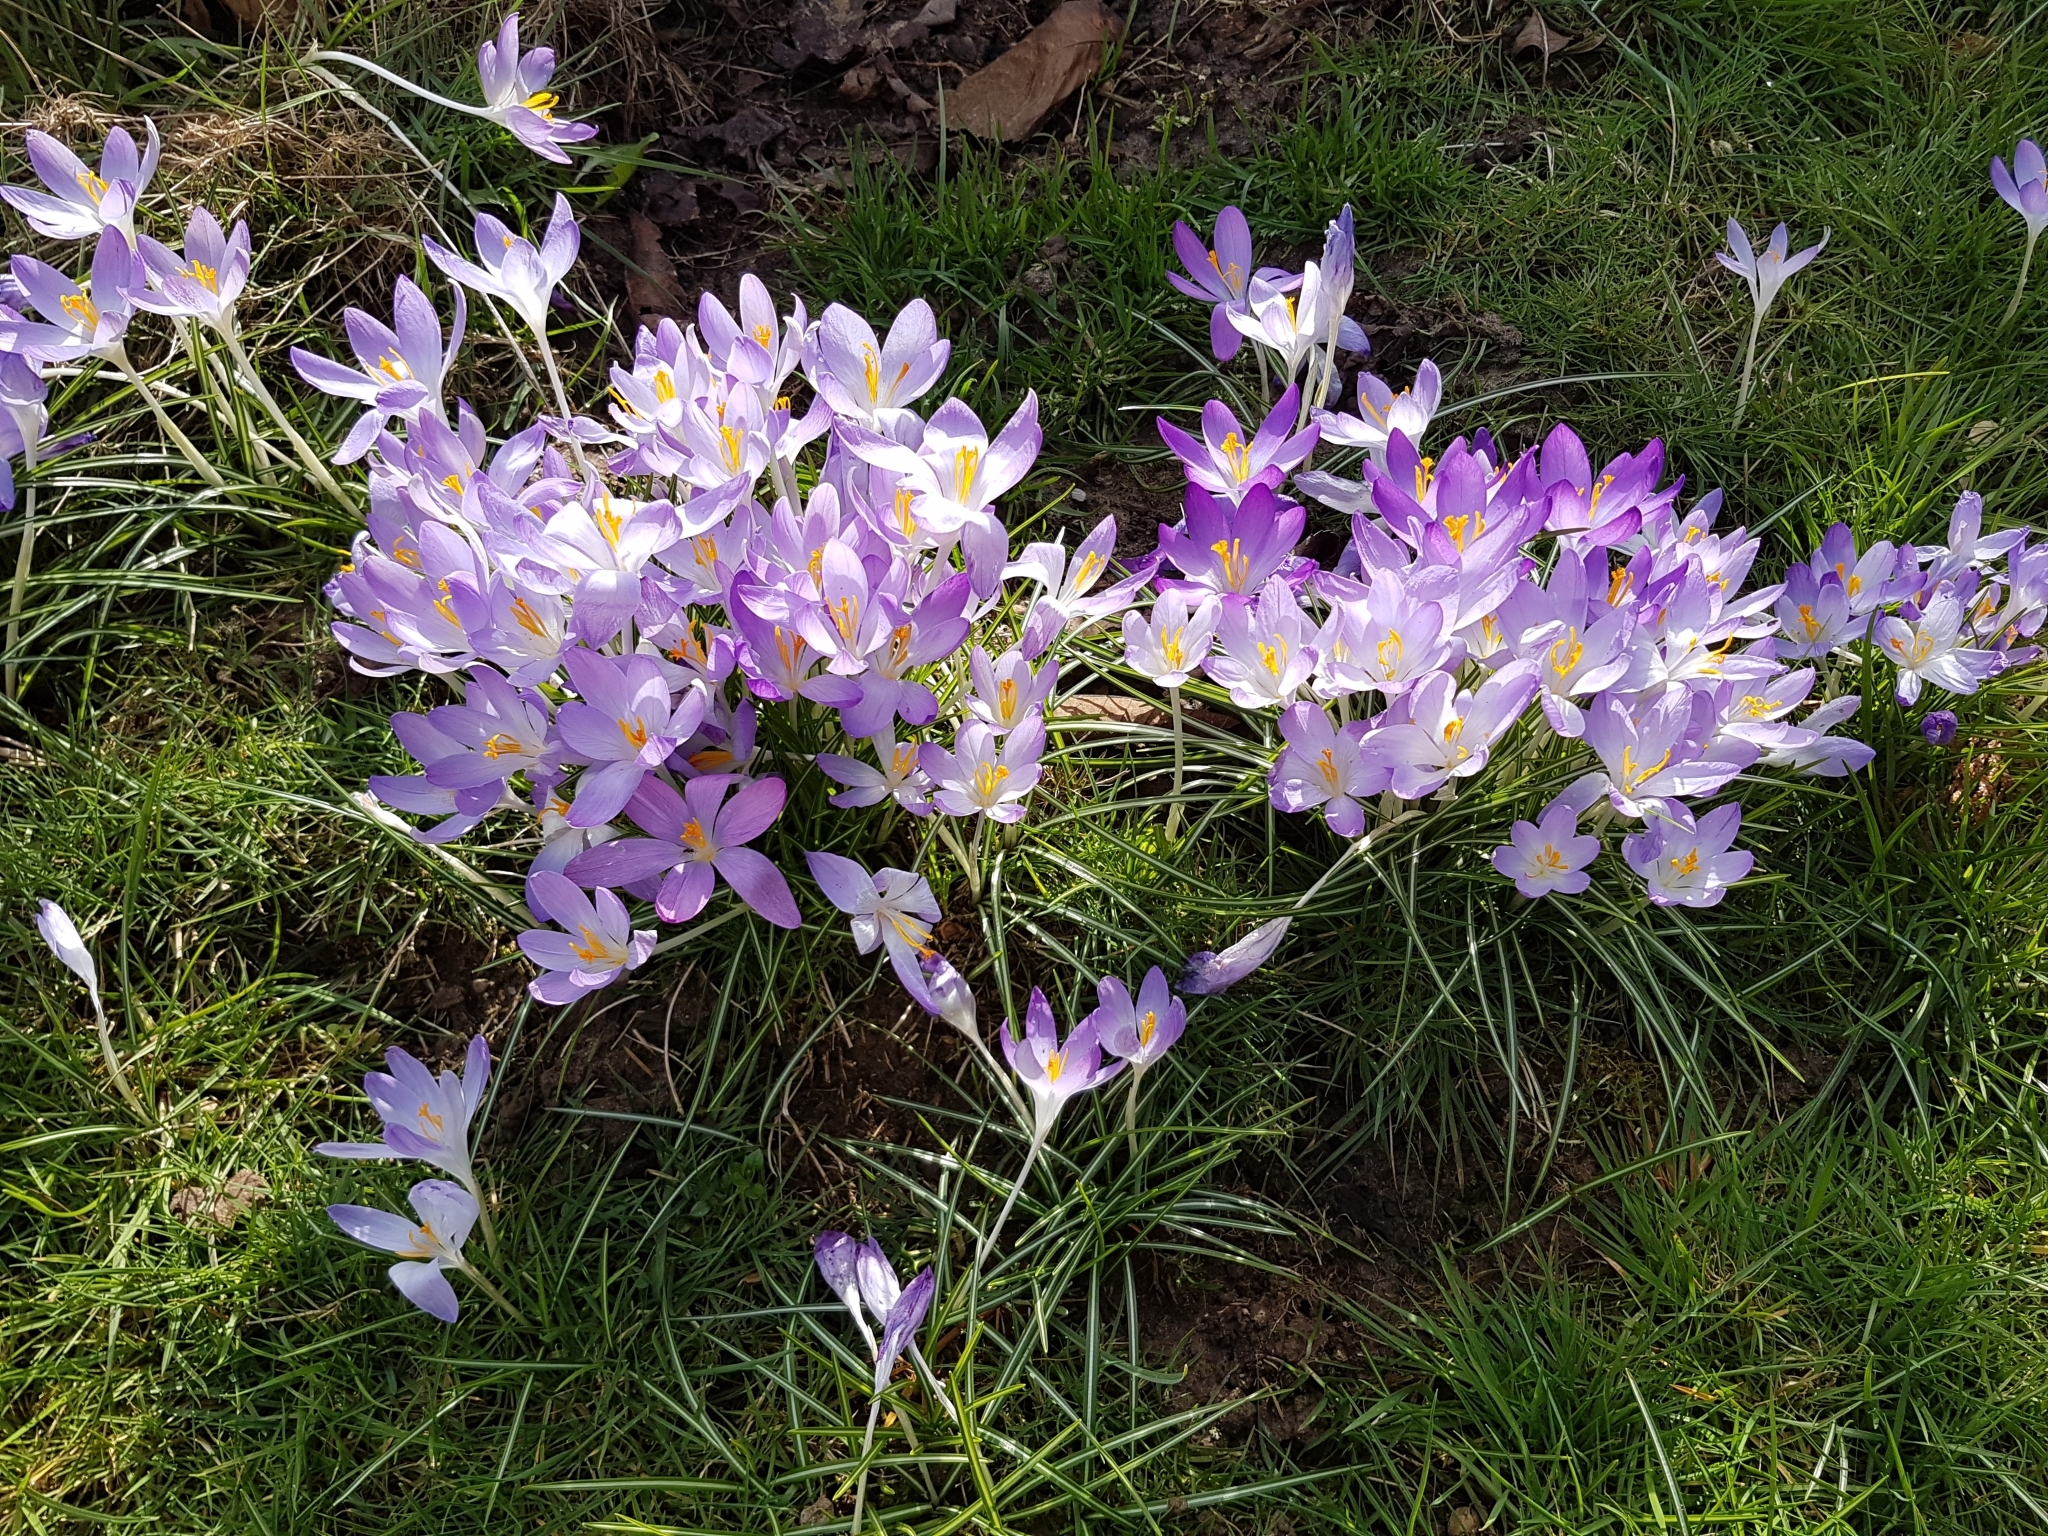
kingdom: Plantae
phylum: Tracheophyta
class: Liliopsida
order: Asparagales
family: Iridaceae
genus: Crocus
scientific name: Crocus tommasinianus
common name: Early crocus
